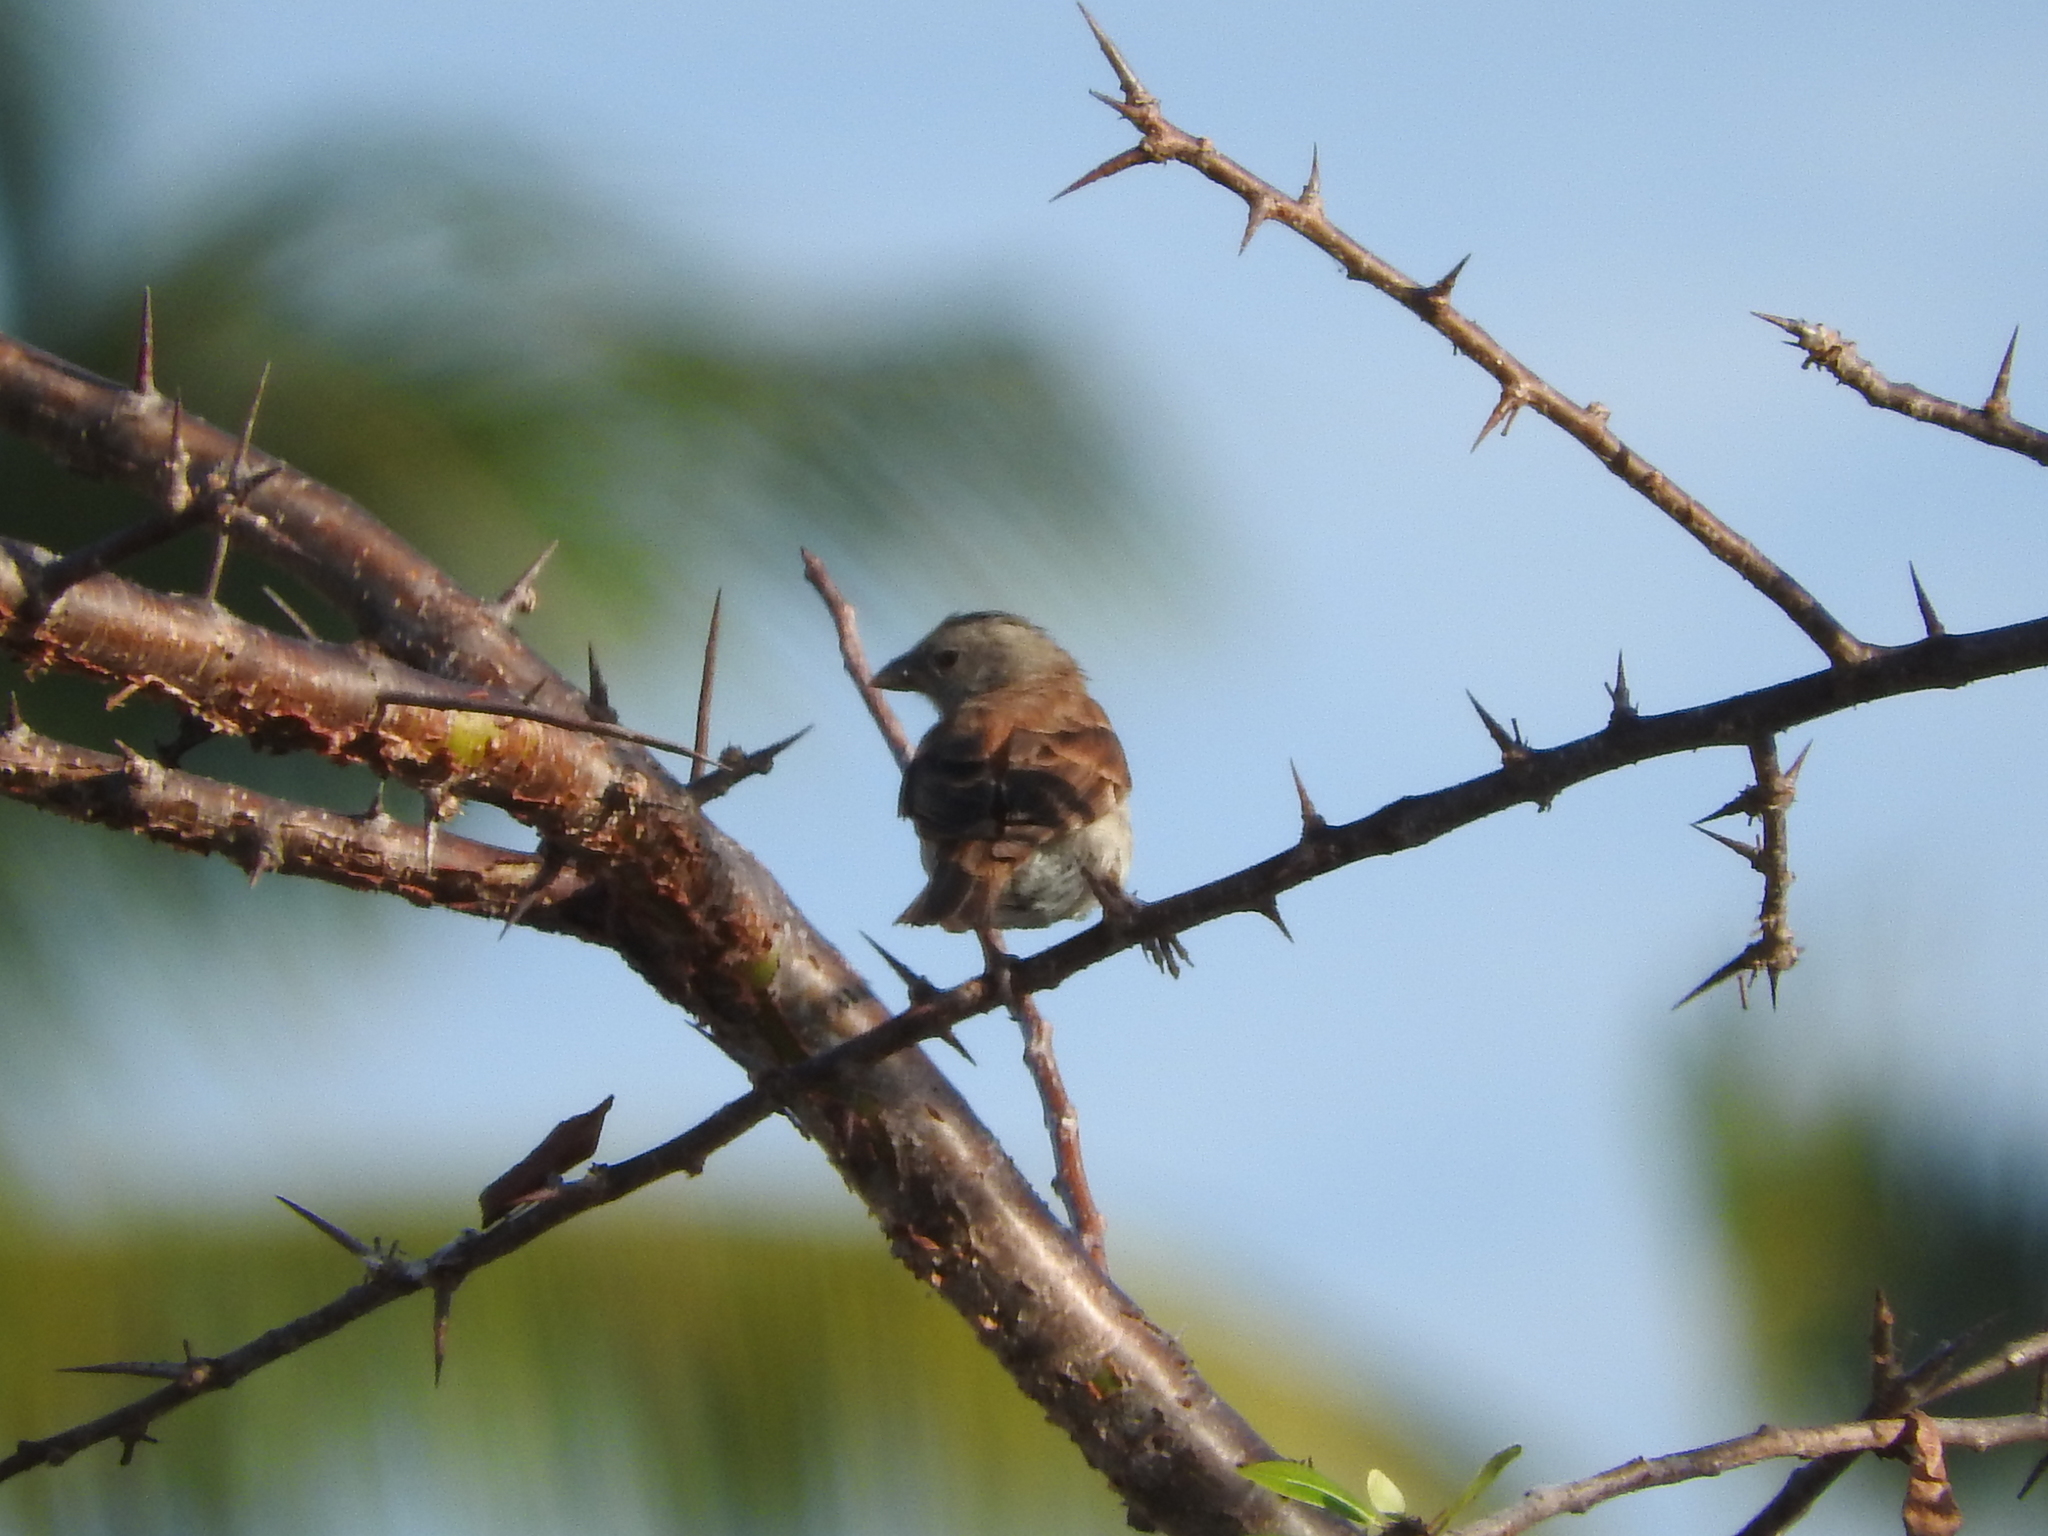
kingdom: Animalia
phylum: Chordata
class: Aves
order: Passeriformes
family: Passeridae
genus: Passer
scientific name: Passer diffusus
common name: Southern grey-headed sparrow
